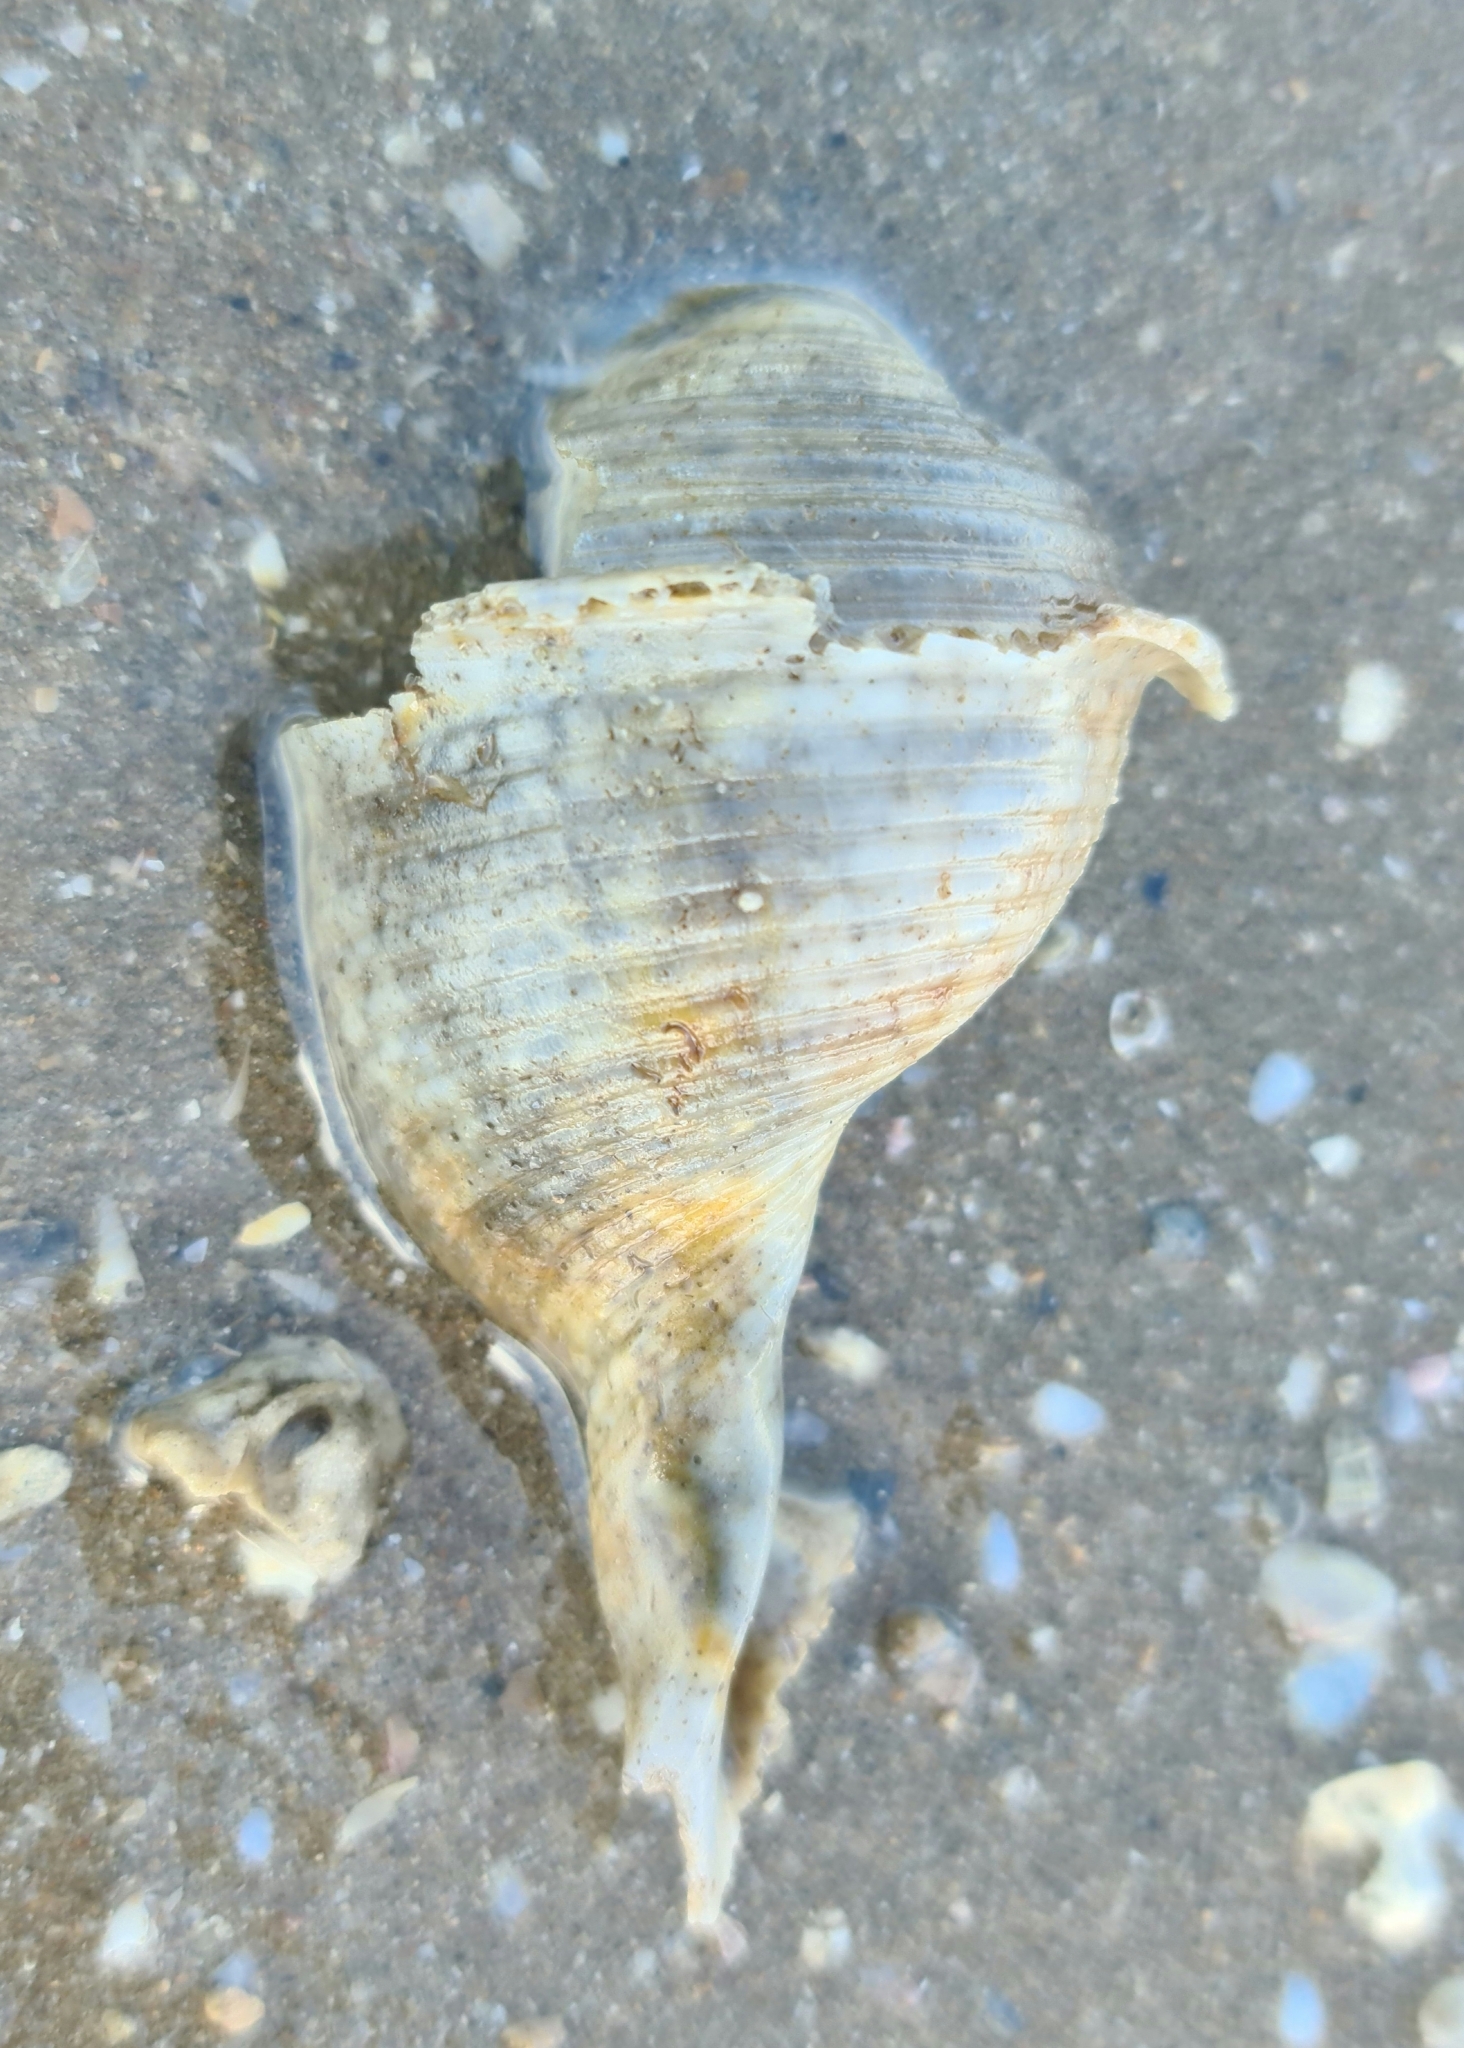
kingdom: Animalia
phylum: Mollusca
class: Gastropoda
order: Littorinimorpha
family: Tonnidae
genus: Tonna
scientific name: Tonna tetracotula
